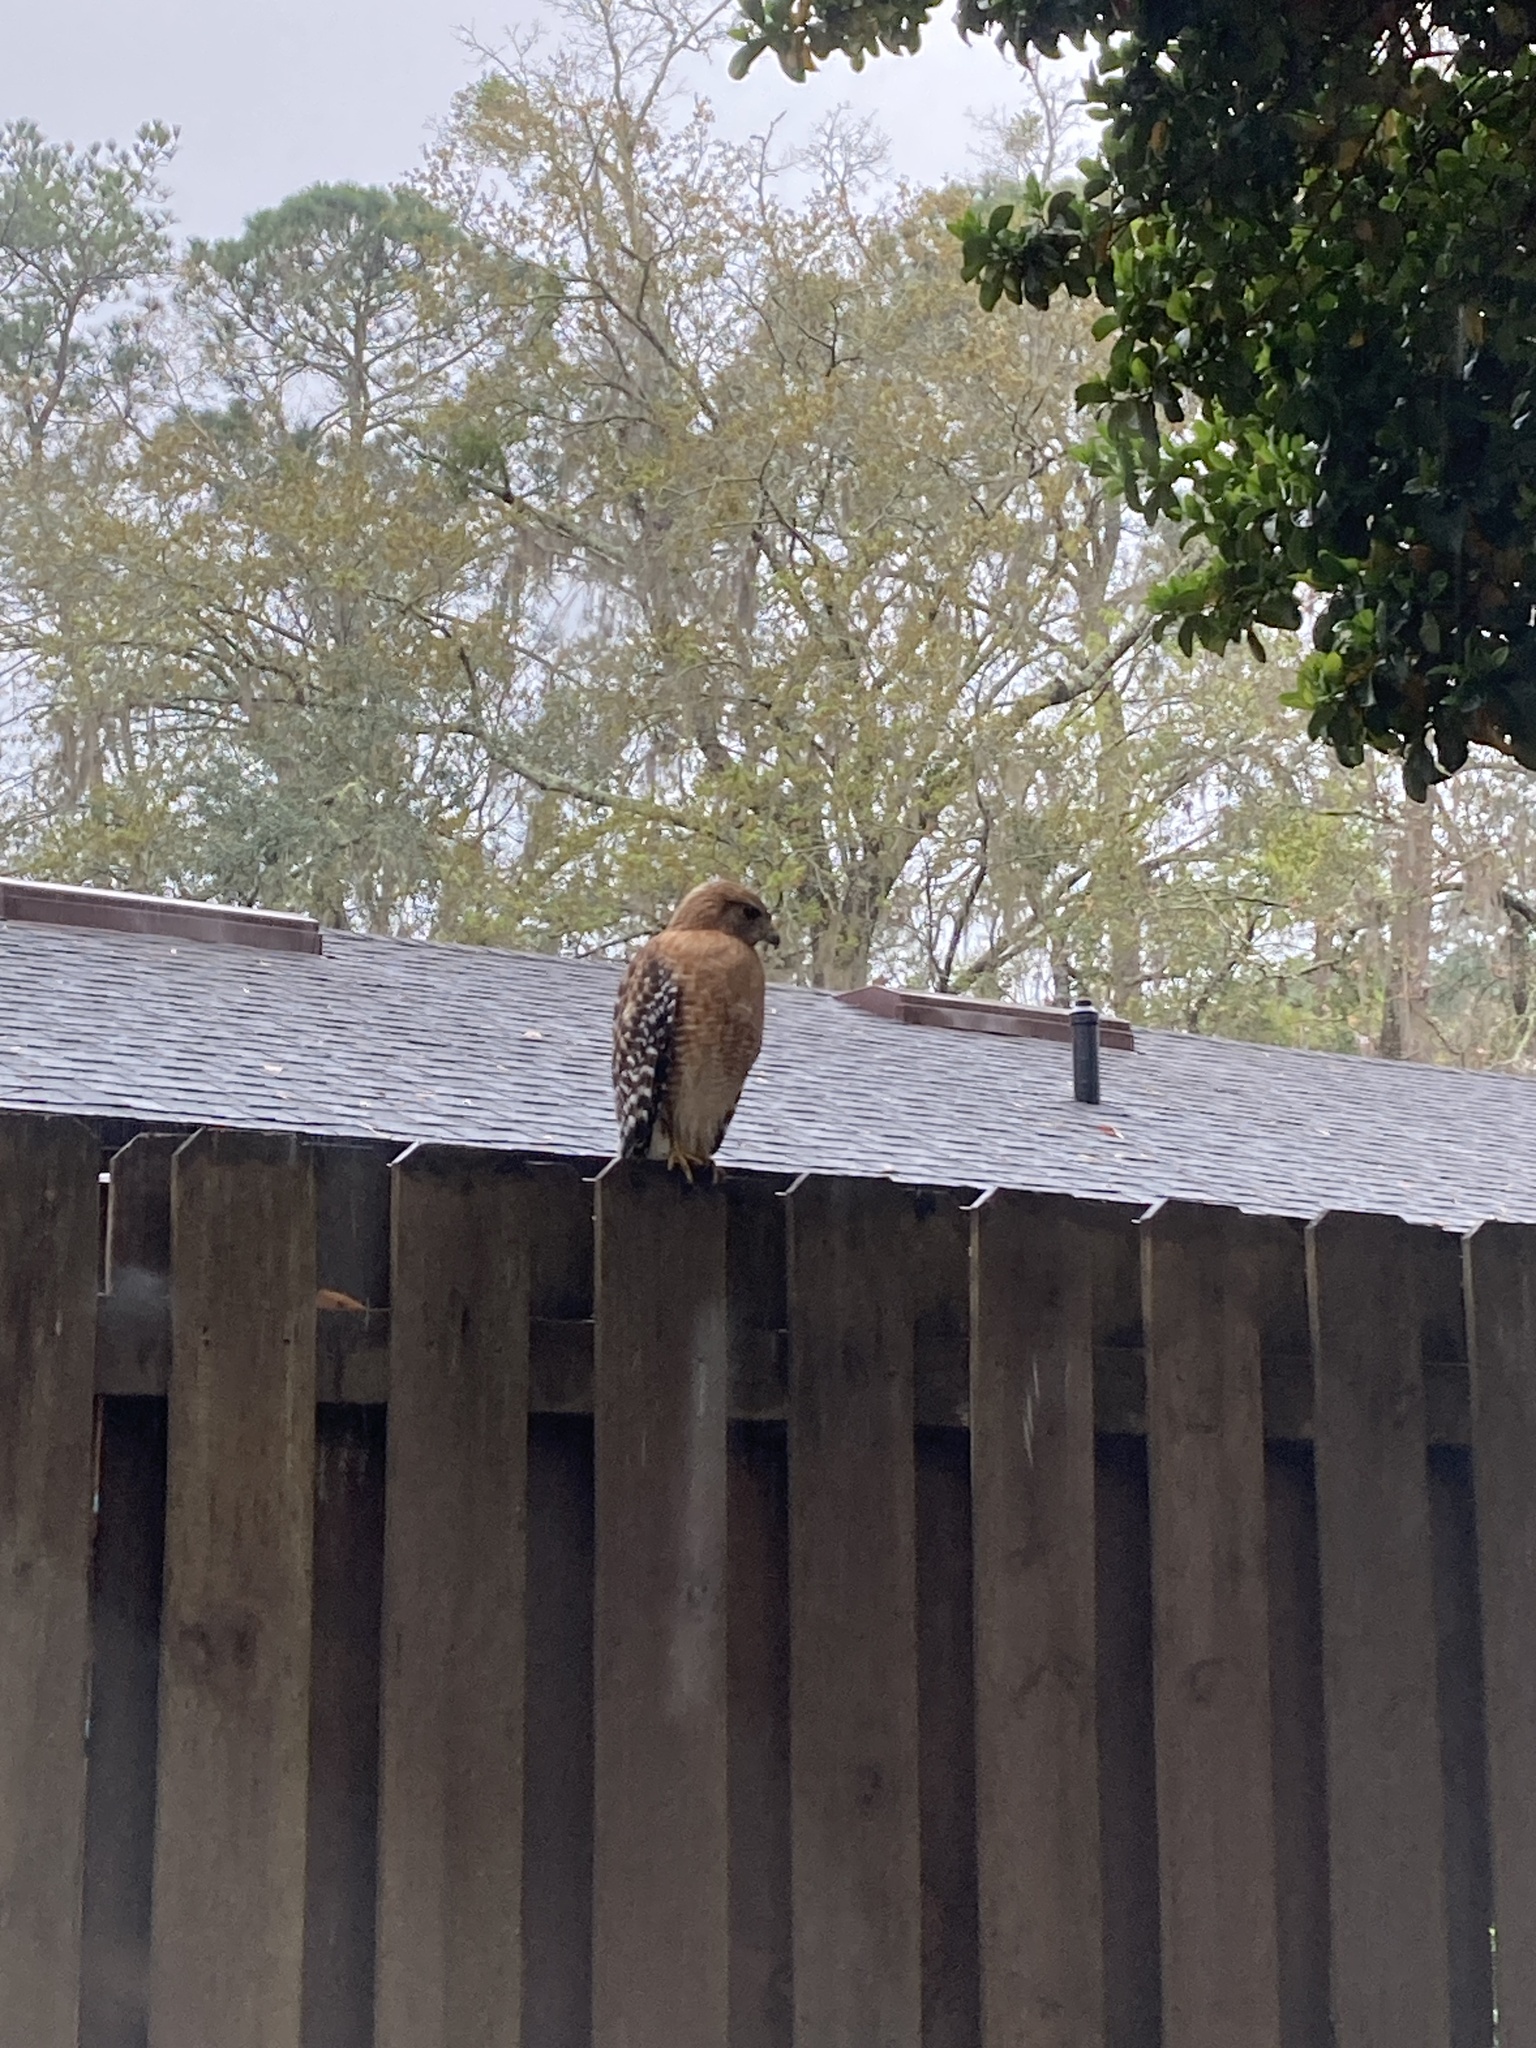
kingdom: Animalia
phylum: Chordata
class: Aves
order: Accipitriformes
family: Accipitridae
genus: Buteo
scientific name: Buteo lineatus
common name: Red-shouldered hawk
